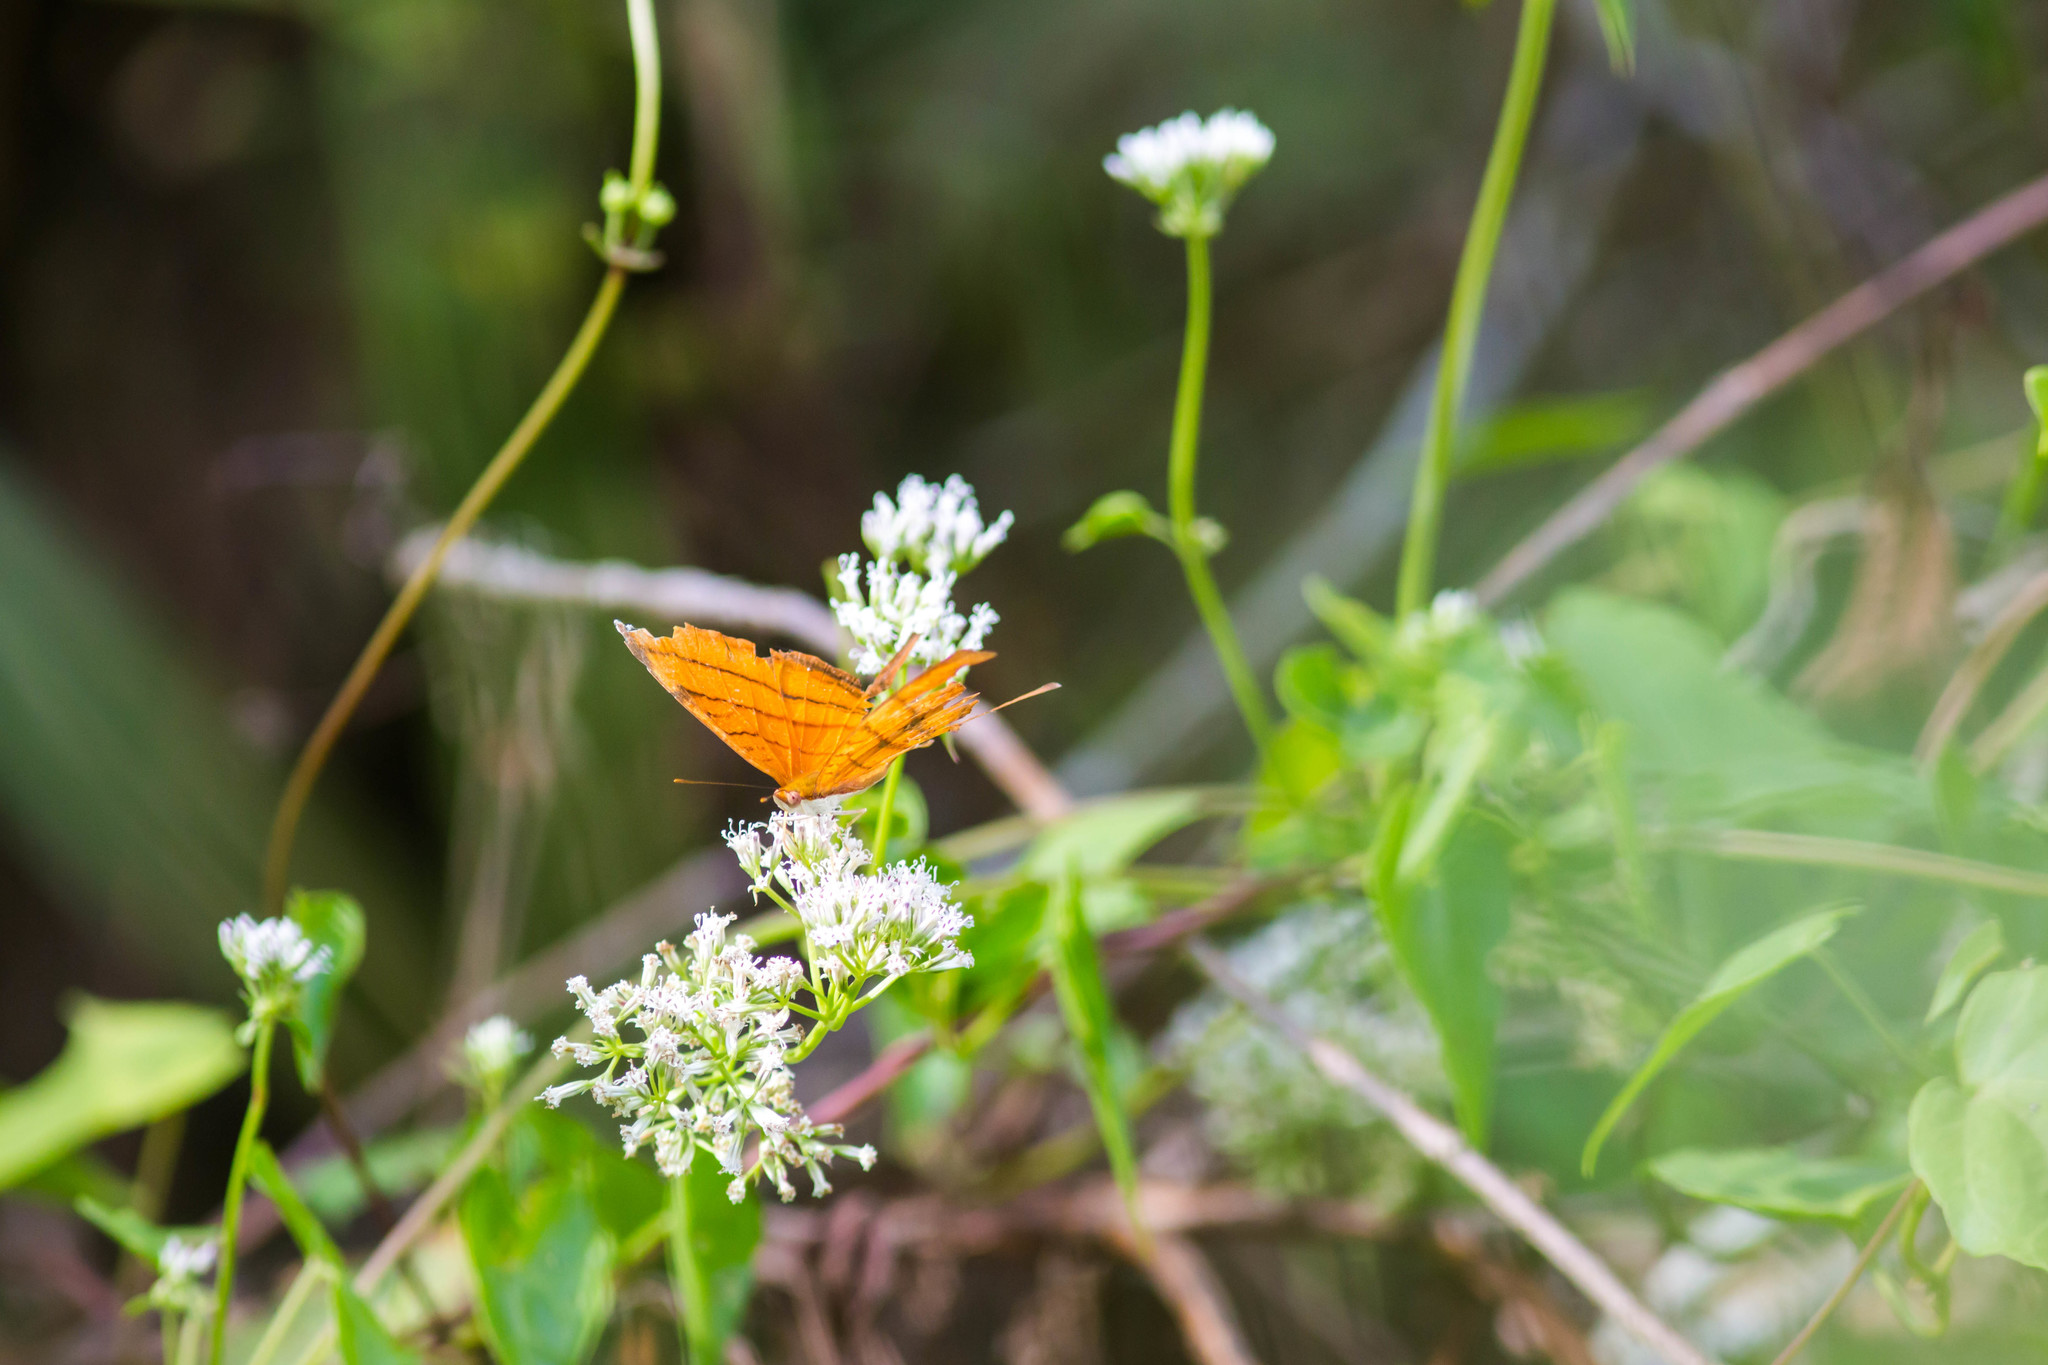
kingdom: Animalia
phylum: Arthropoda
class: Insecta
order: Lepidoptera
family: Nymphalidae
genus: Marpesia
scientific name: Marpesia petreus
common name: Red dagger wing
